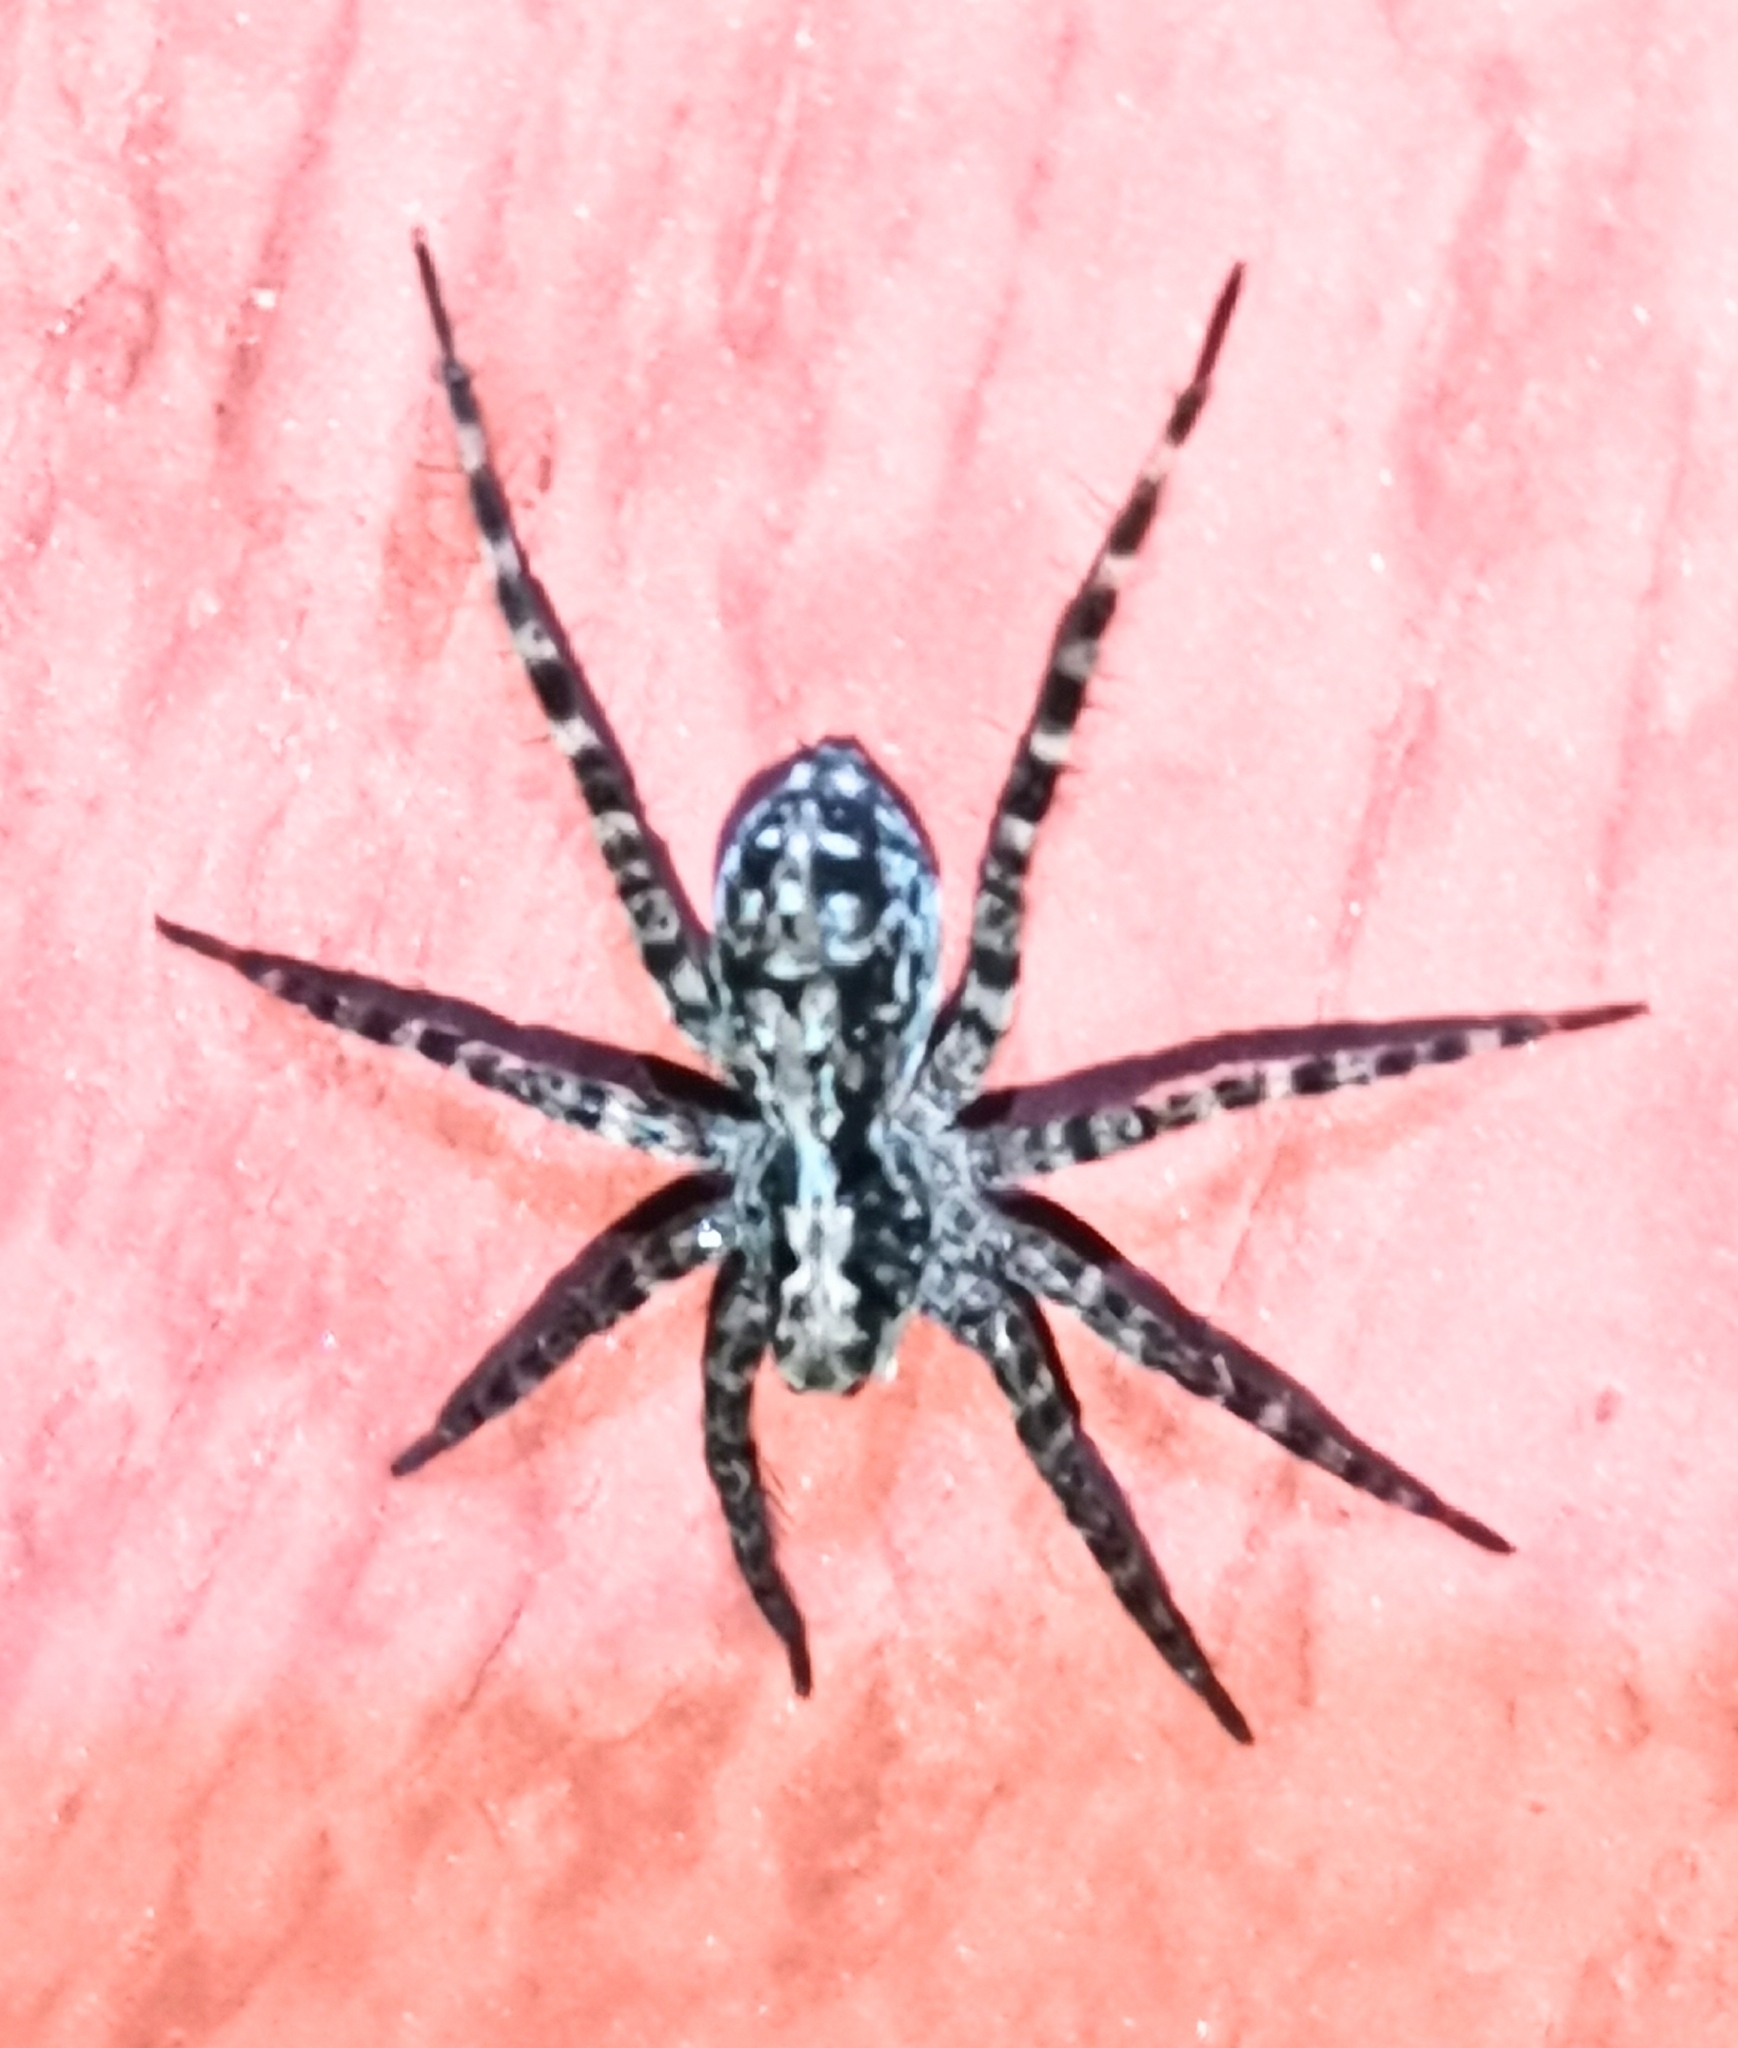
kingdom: Animalia
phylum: Arthropoda
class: Arachnida
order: Araneae
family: Lycosidae
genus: Acantholycosa
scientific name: Acantholycosa lignaria
